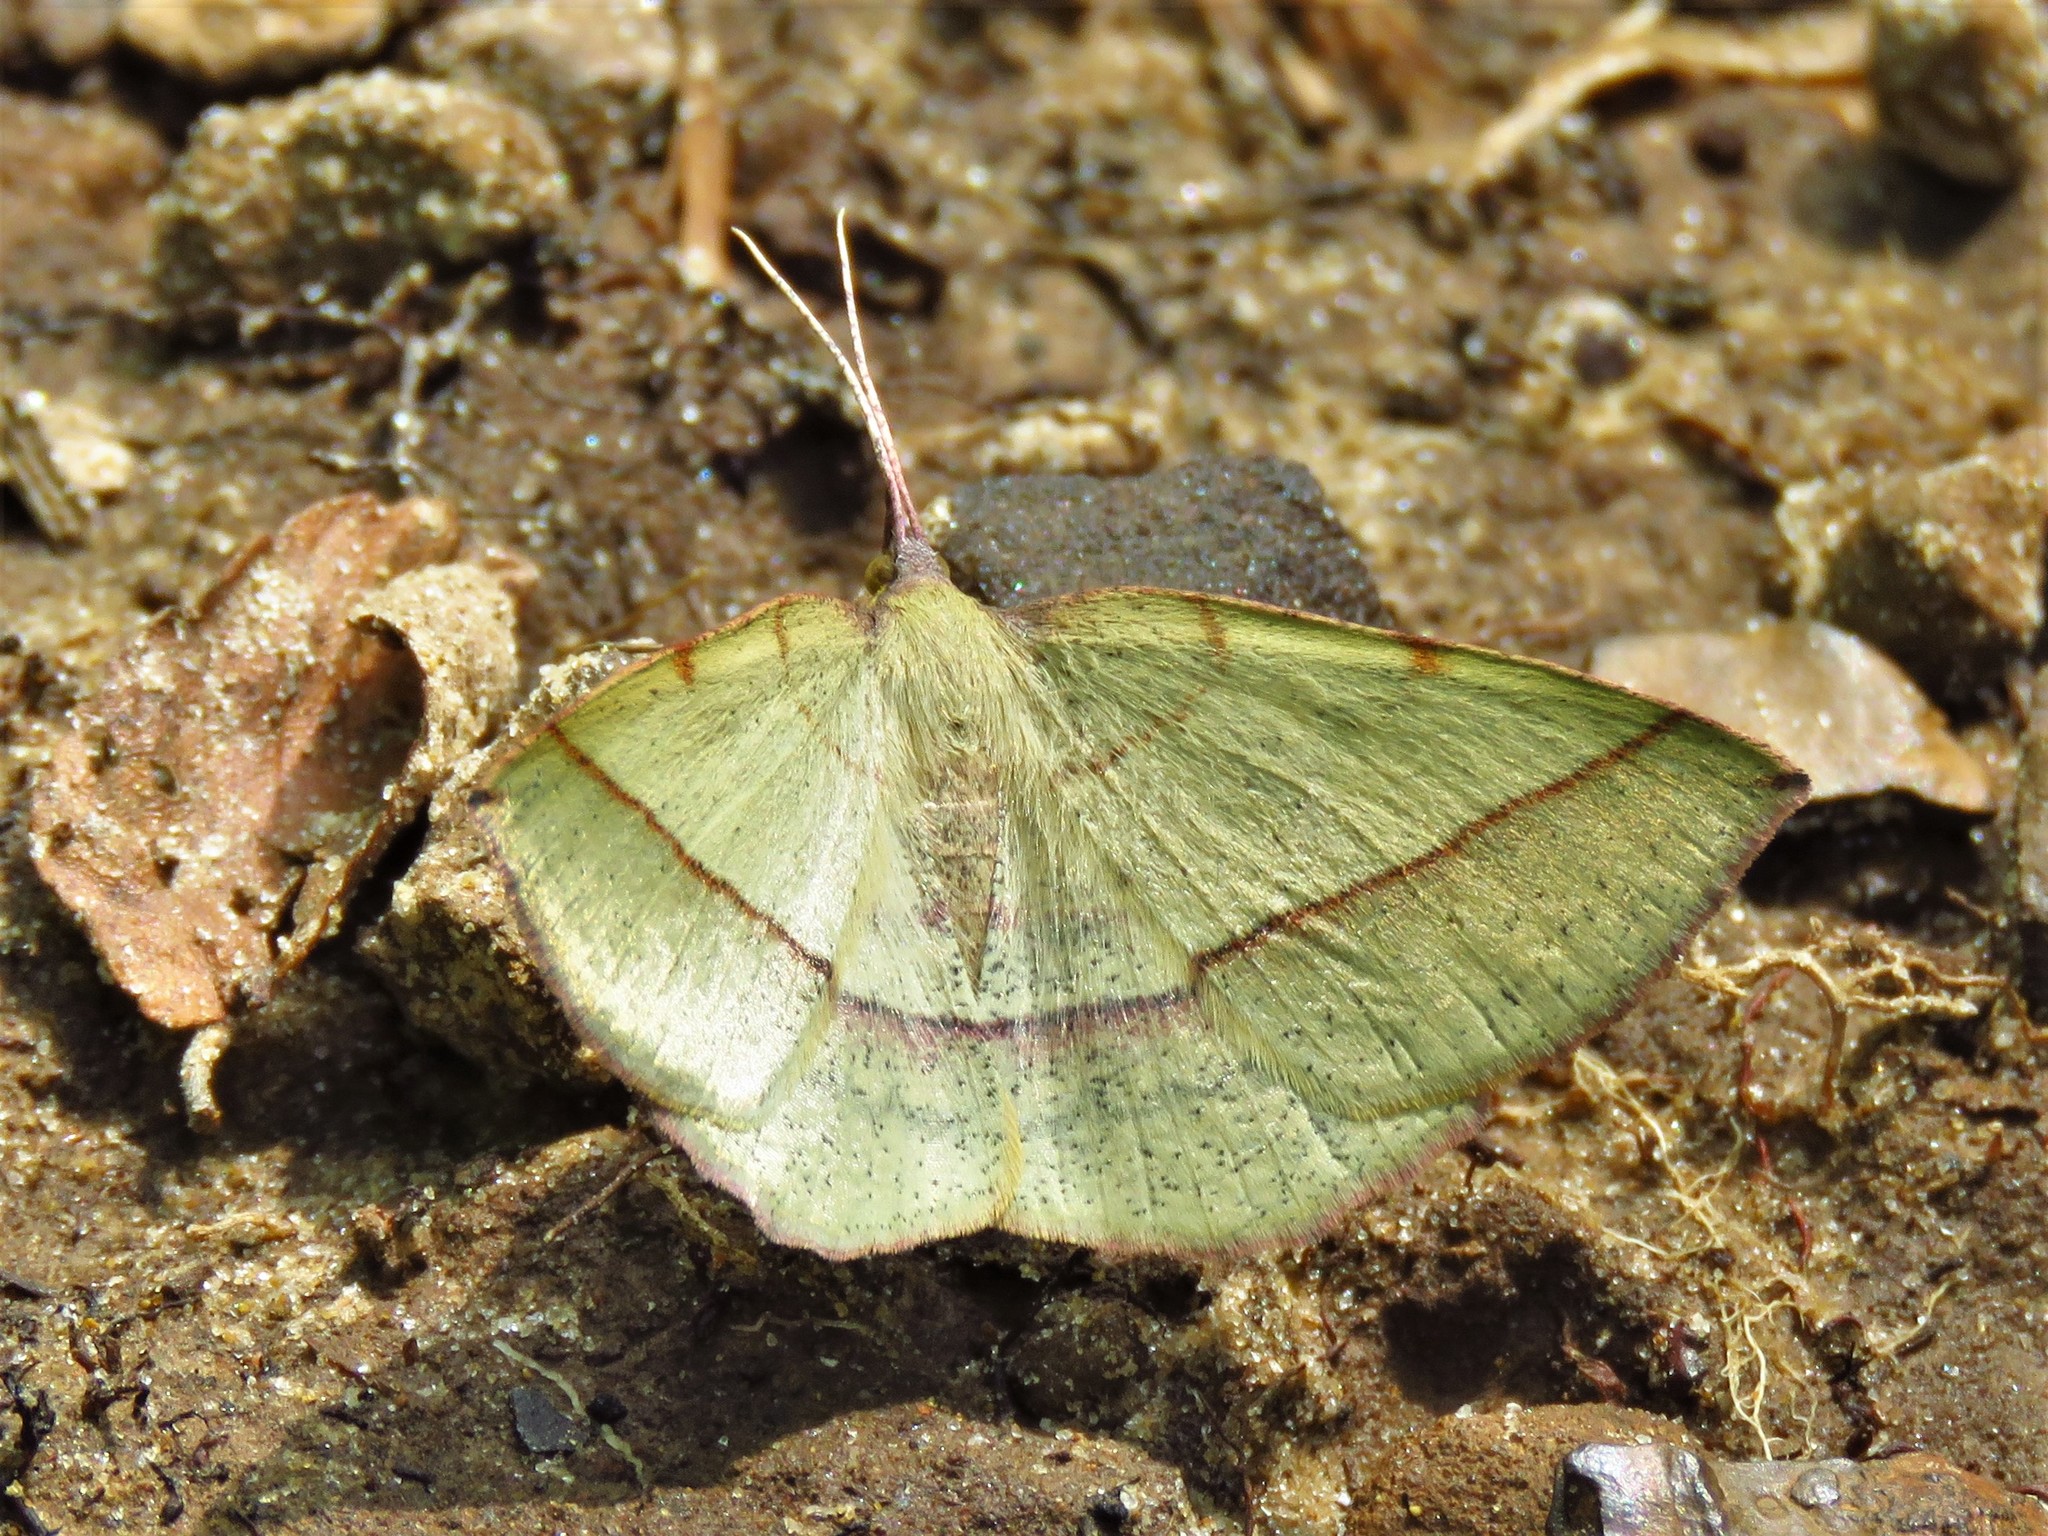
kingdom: Animalia
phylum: Arthropoda
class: Insecta
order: Lepidoptera
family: Geometridae
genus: Erastria
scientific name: Erastria cruentaria
